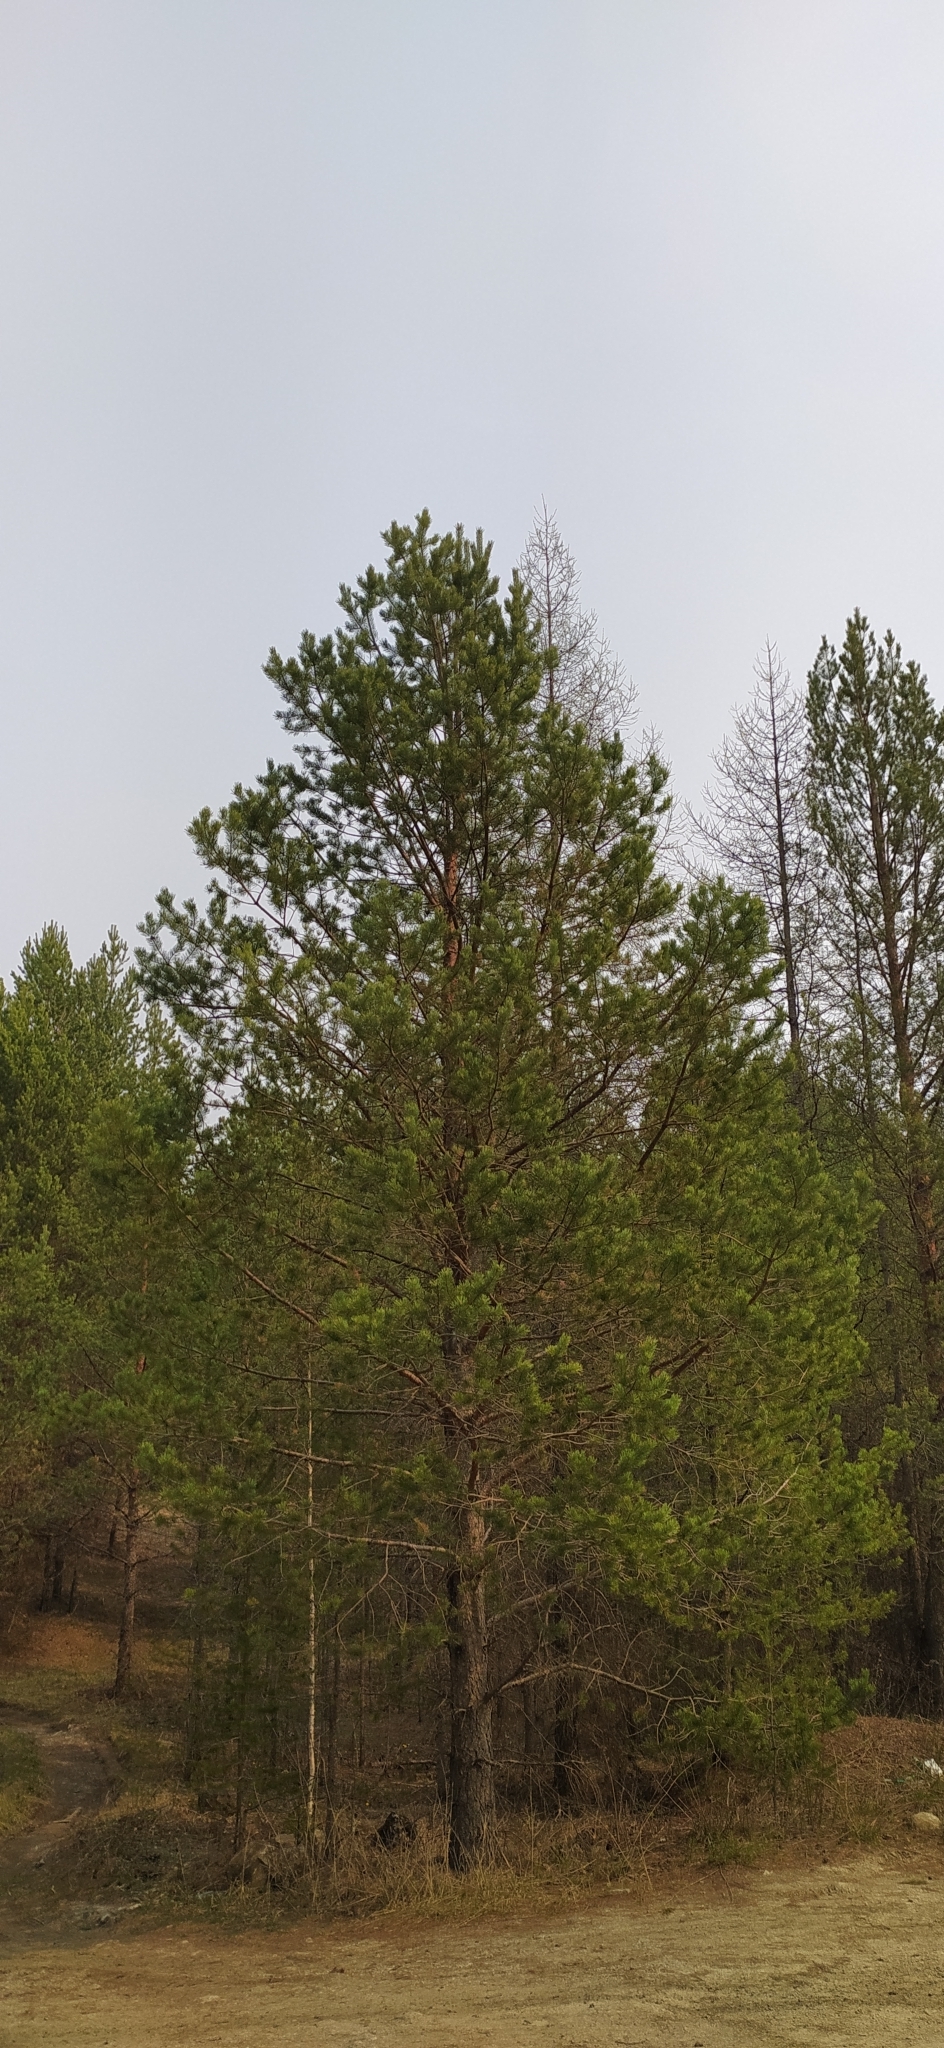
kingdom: Plantae
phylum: Tracheophyta
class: Pinopsida
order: Pinales
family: Pinaceae
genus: Pinus
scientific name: Pinus sylvestris
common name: Scots pine
